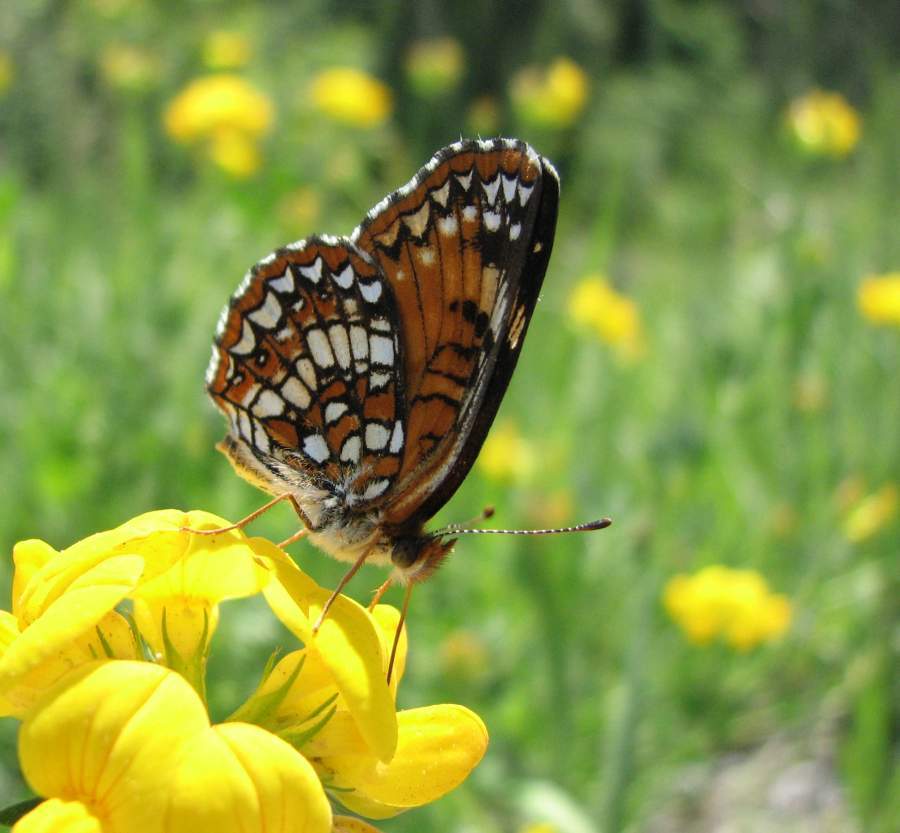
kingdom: Animalia
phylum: Arthropoda
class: Insecta
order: Lepidoptera
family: Nymphalidae
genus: Chlosyne
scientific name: Chlosyne harrisii
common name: Harris's checkerspot
